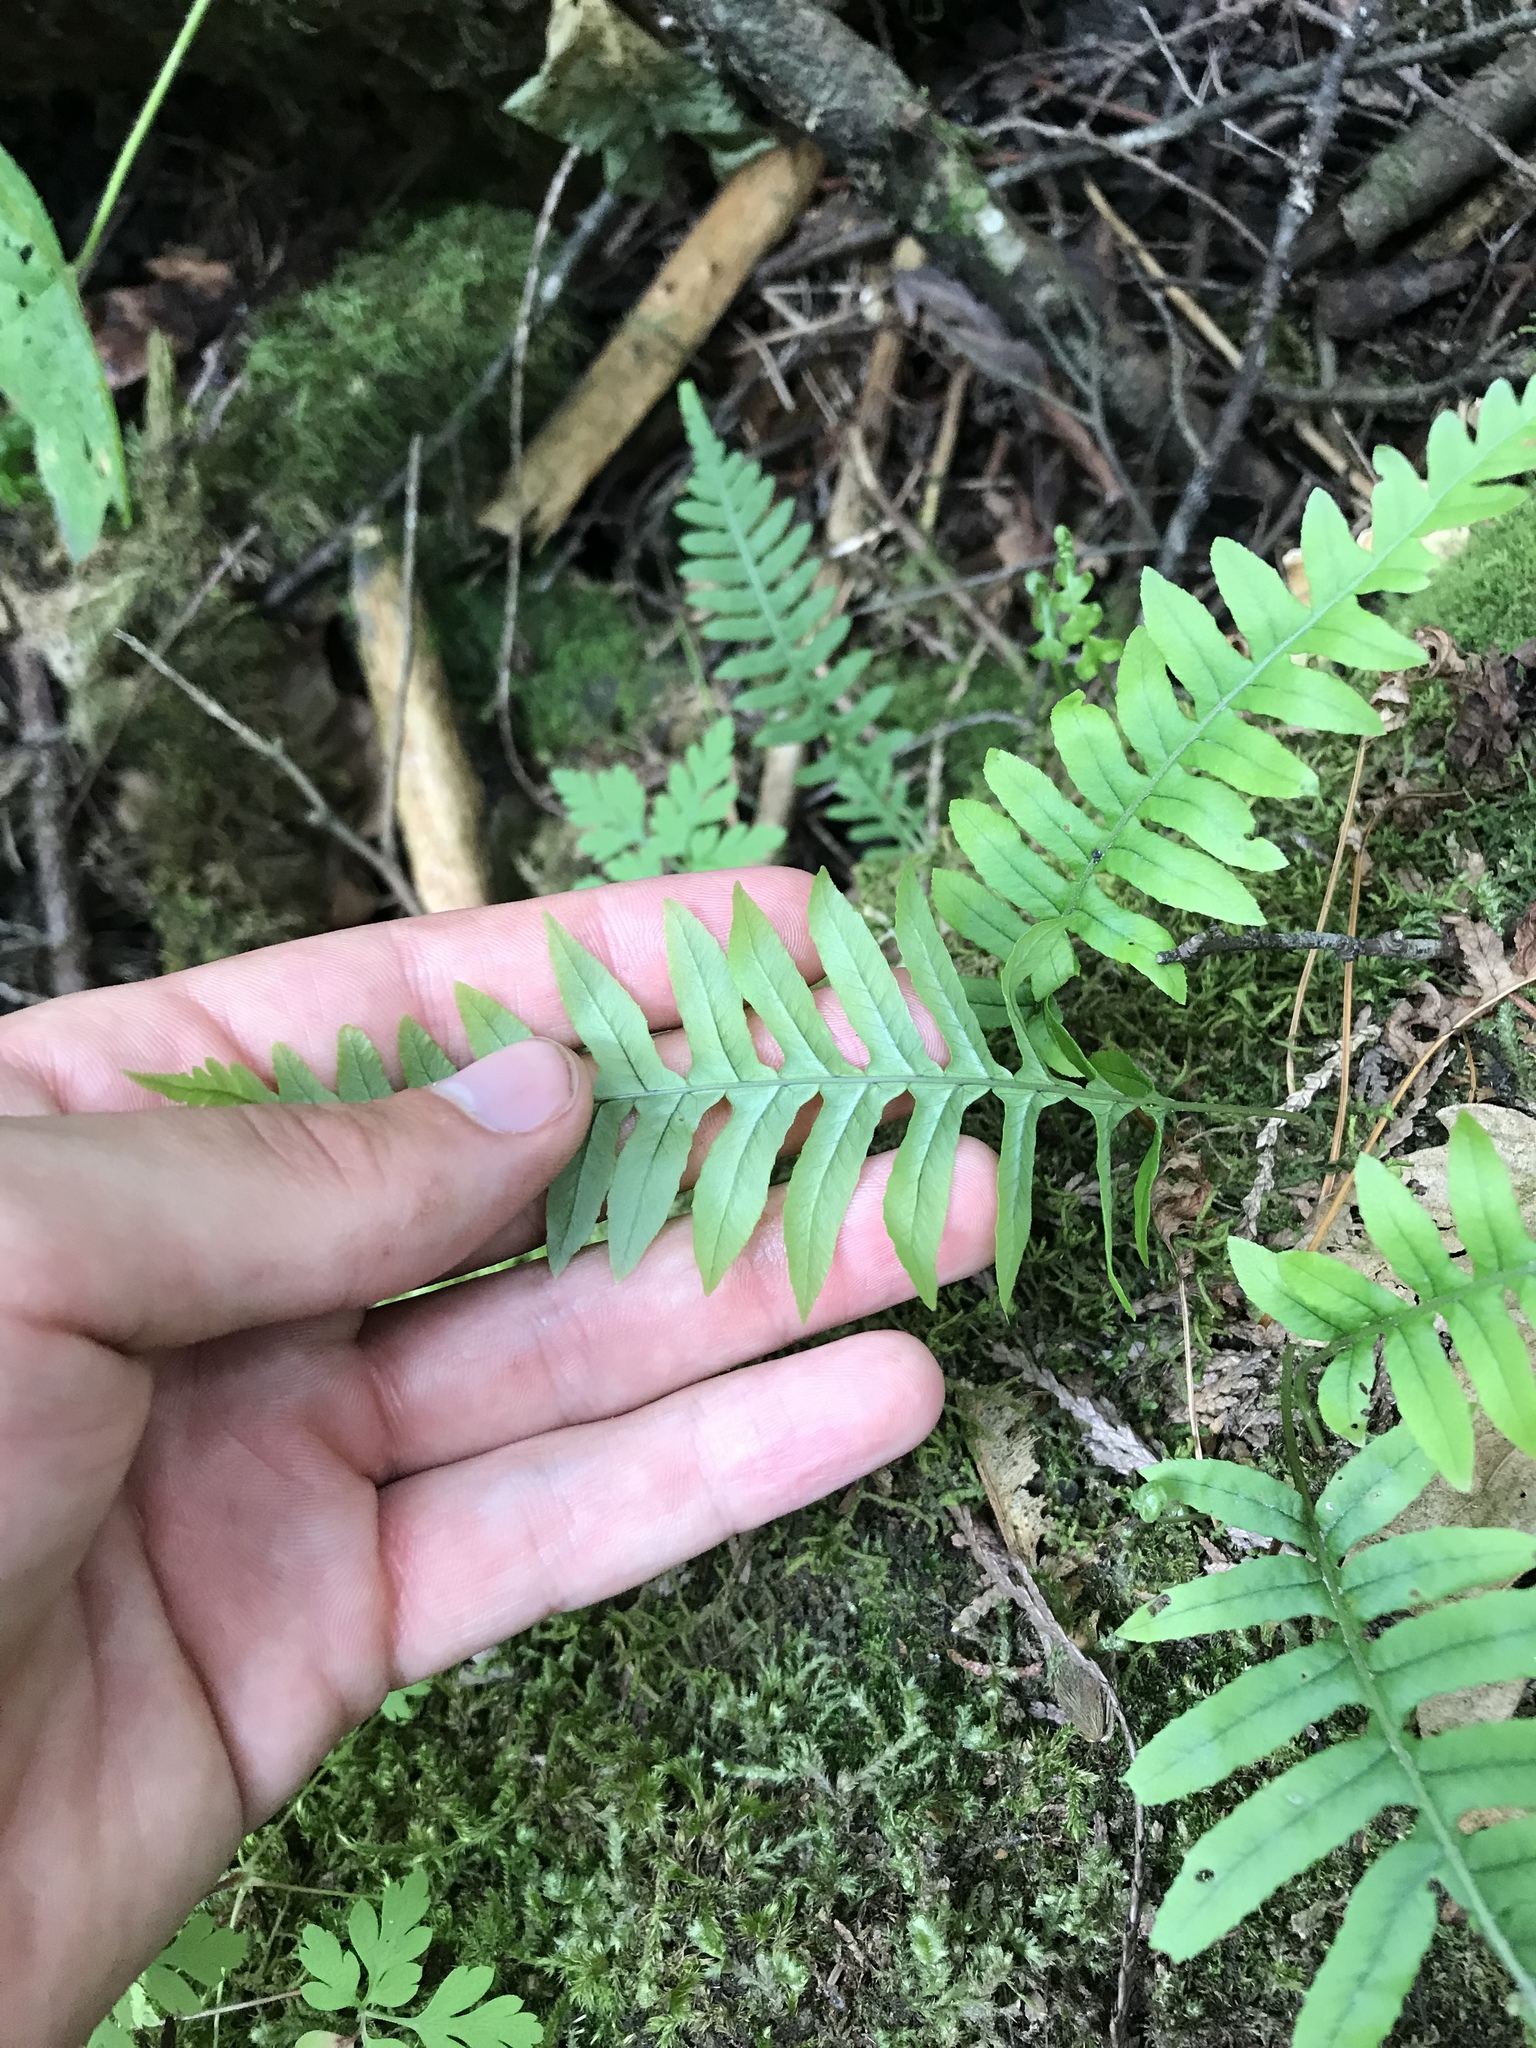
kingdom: Plantae
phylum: Tracheophyta
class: Polypodiopsida
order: Polypodiales
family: Polypodiaceae
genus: Polypodium
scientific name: Polypodium glycyrrhiza
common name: Licorice fern
